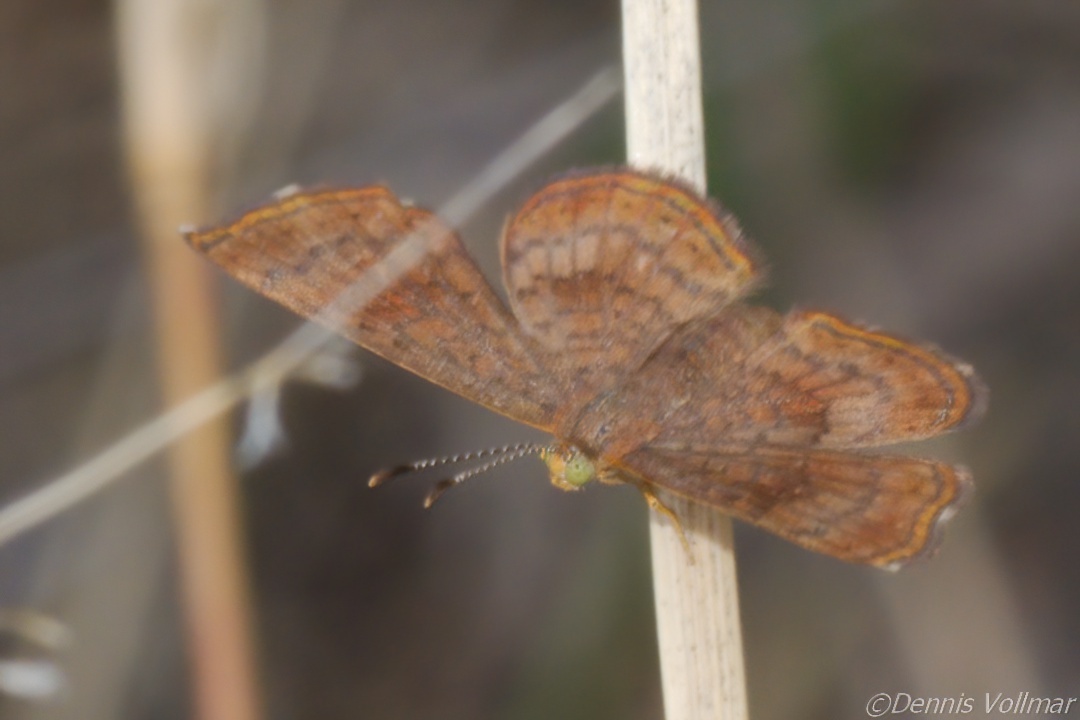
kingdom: Animalia
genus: Calephelis
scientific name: Calephelis nemesis
